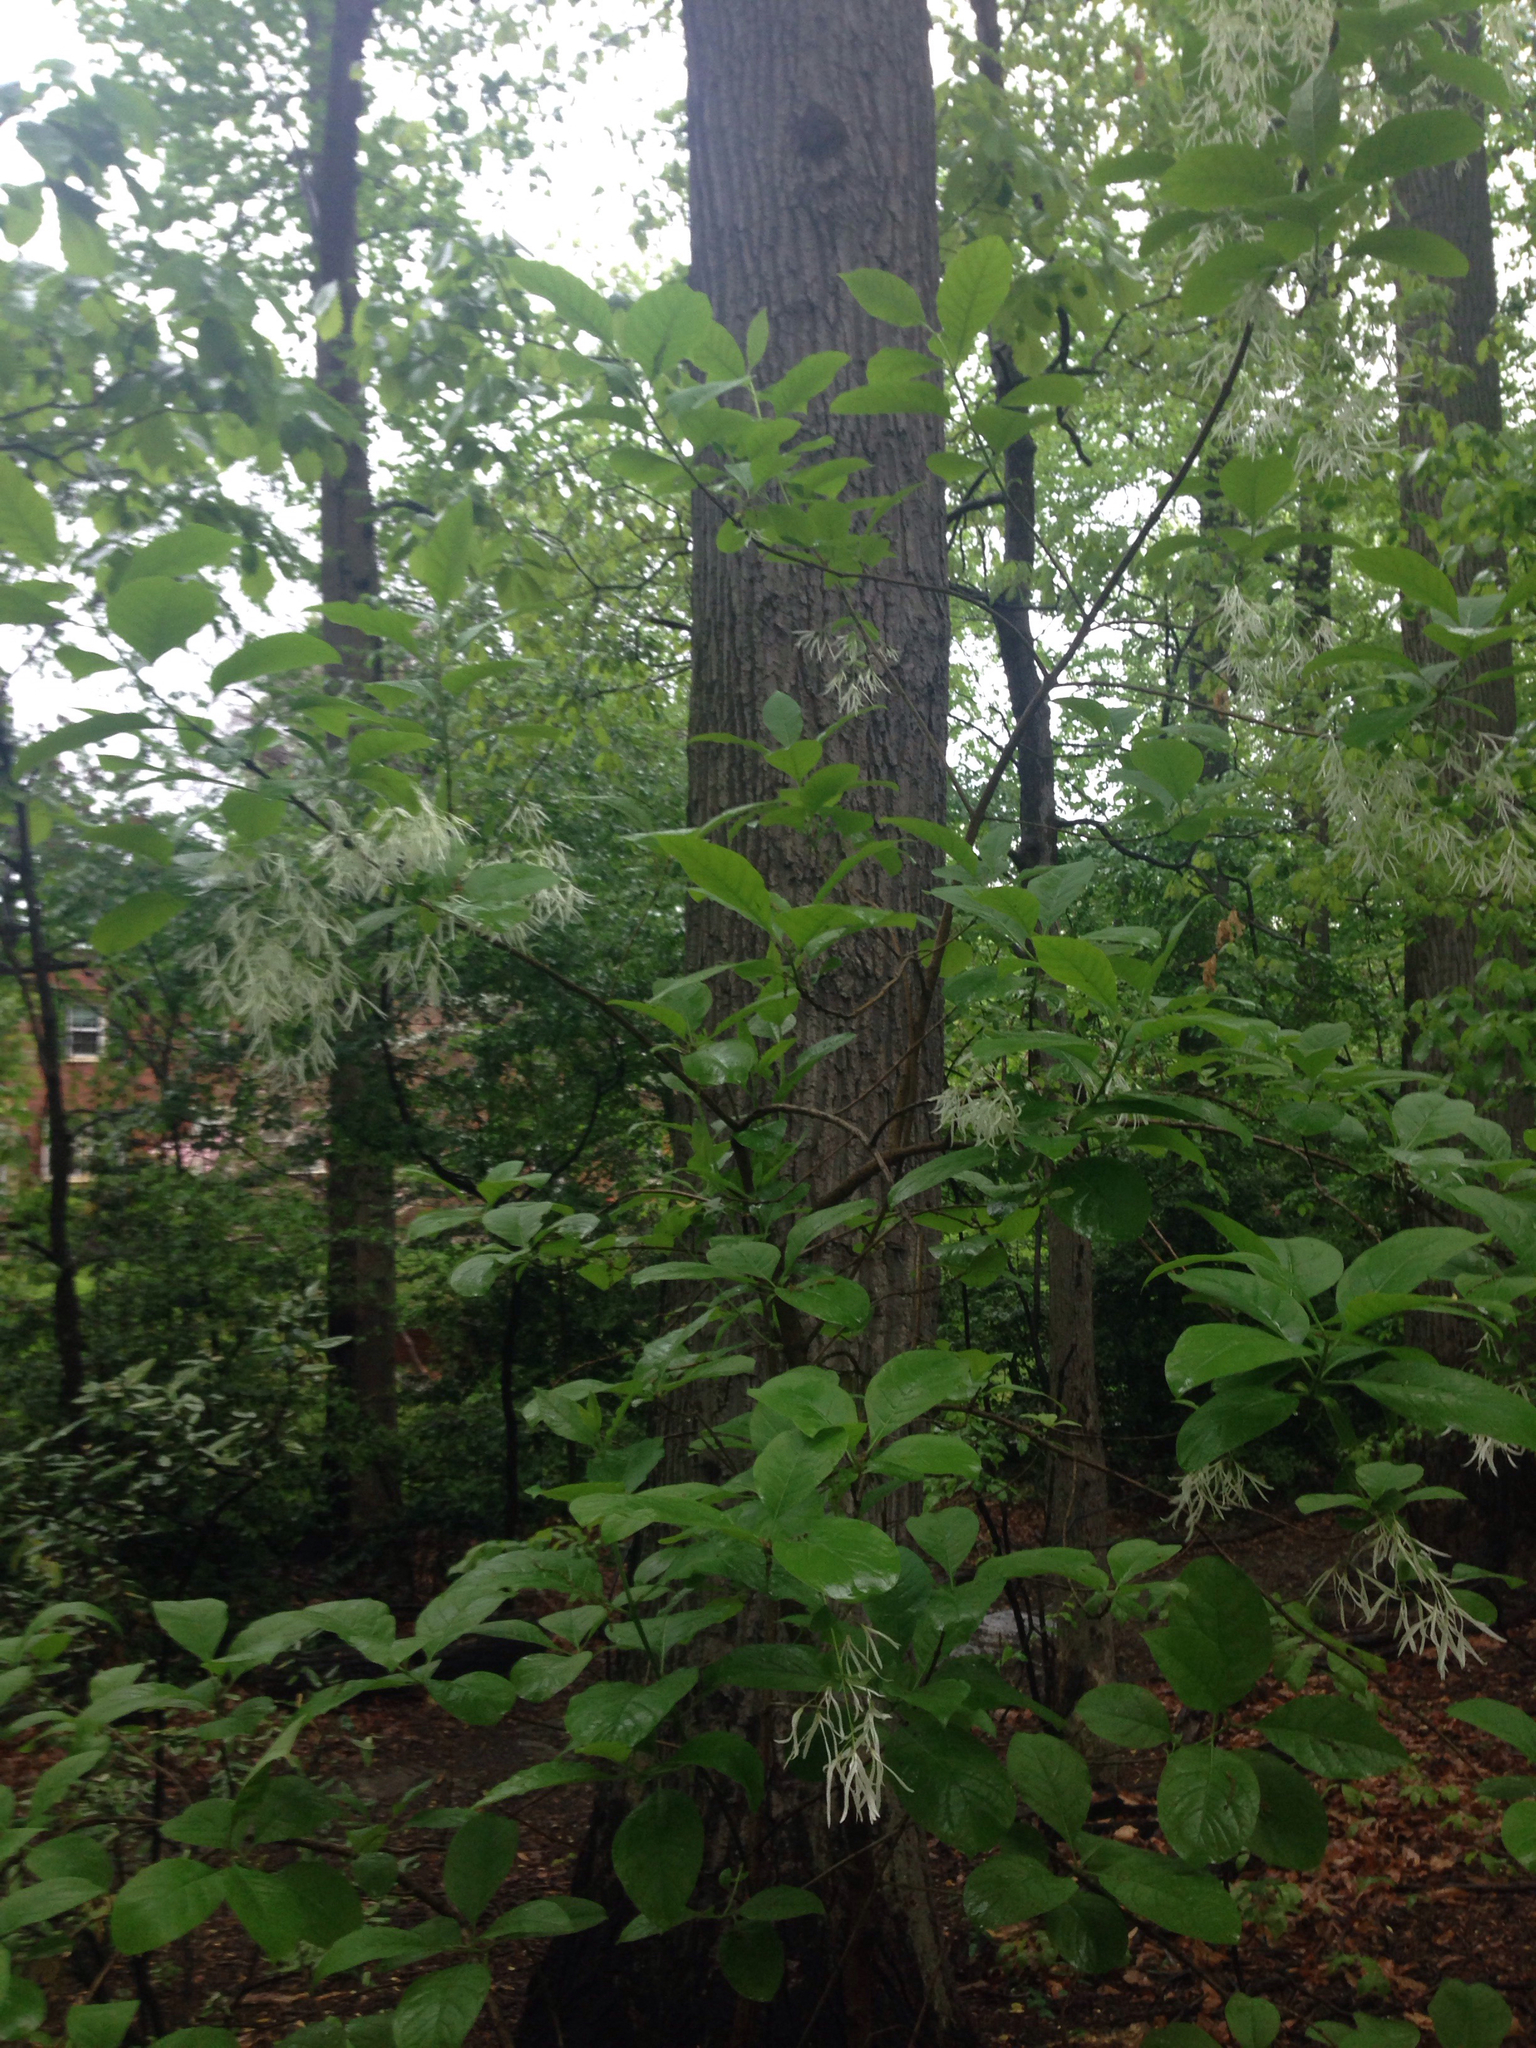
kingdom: Plantae
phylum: Tracheophyta
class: Magnoliopsida
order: Lamiales
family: Oleaceae
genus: Chionanthus
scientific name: Chionanthus virginicus
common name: American fringetree
